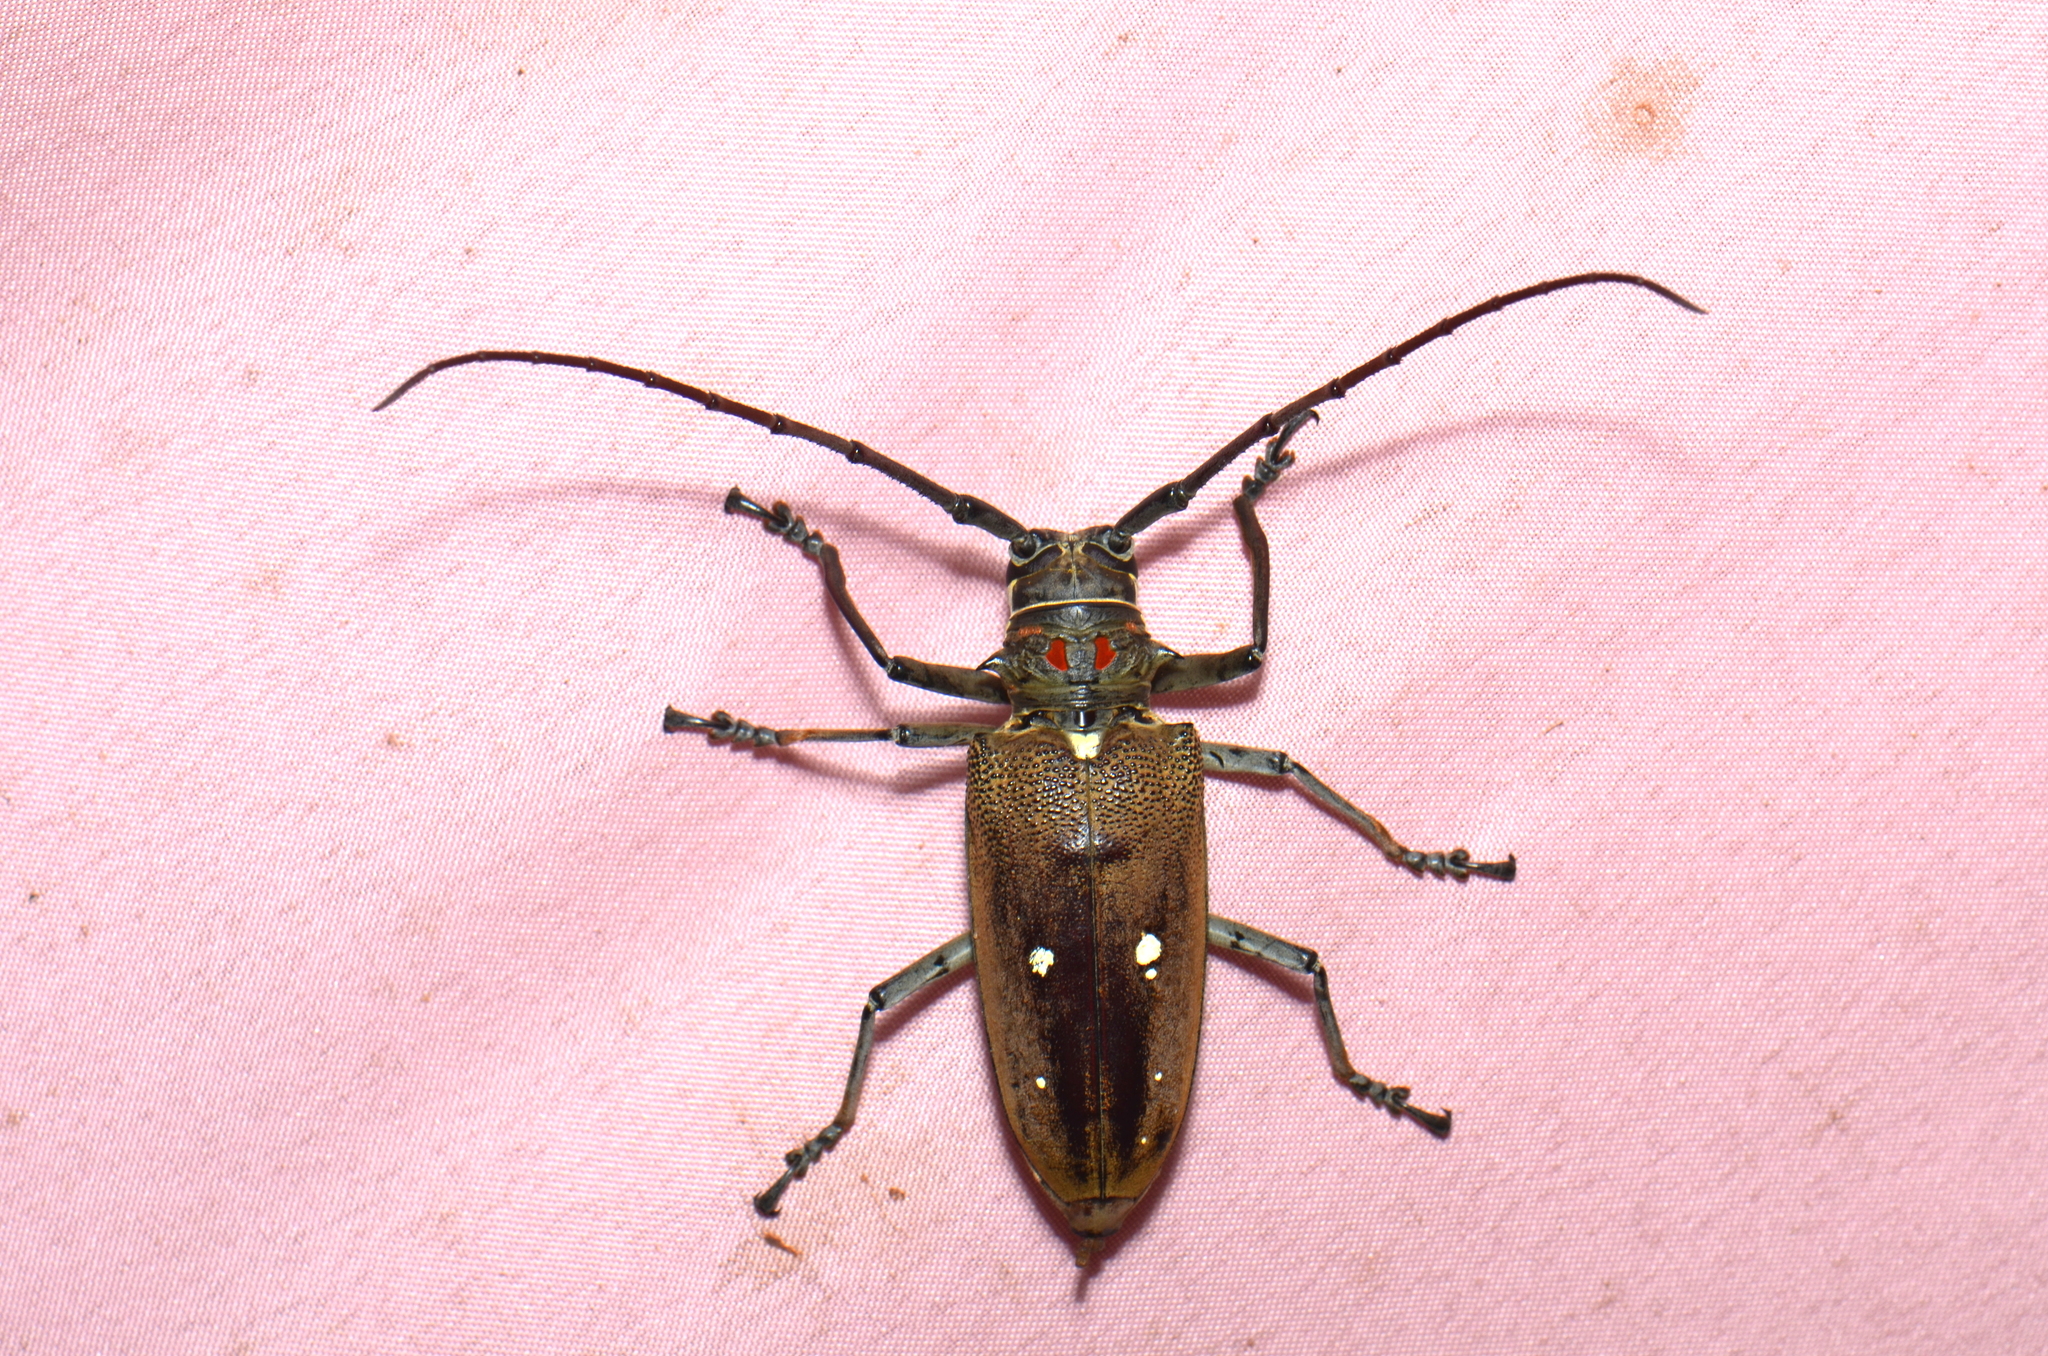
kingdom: Animalia
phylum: Arthropoda
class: Insecta
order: Coleoptera
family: Cerambycidae
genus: Batocera
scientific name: Batocera thomsonii
